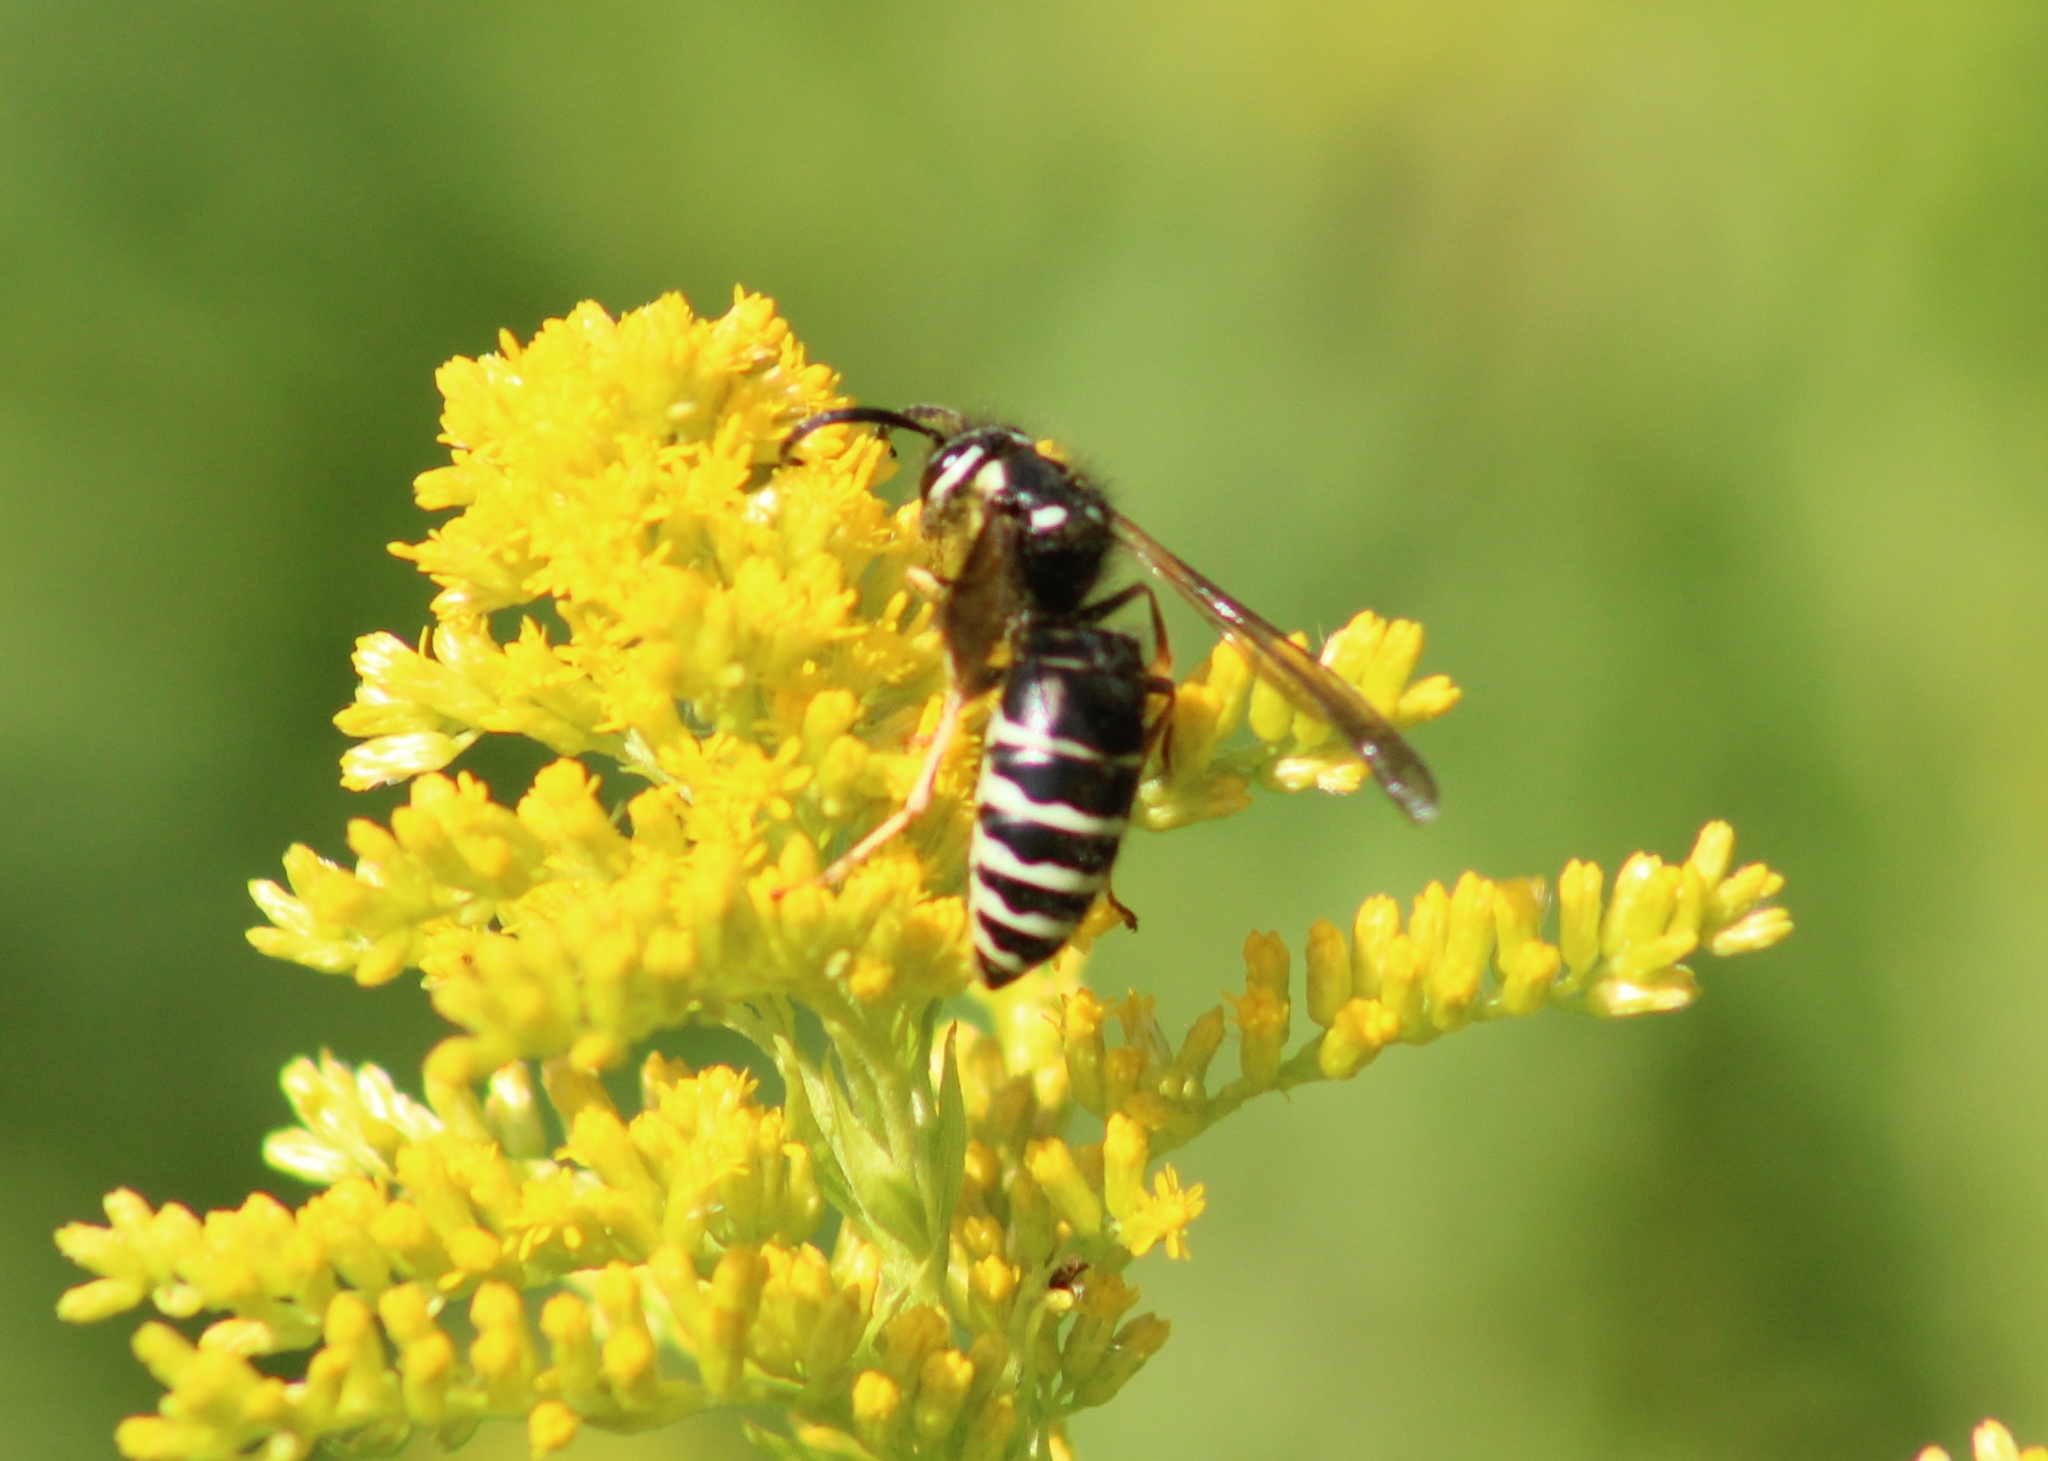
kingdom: Animalia
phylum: Arthropoda
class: Insecta
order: Hymenoptera
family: Vespidae
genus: Vespula
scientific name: Vespula consobrina
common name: Blackjacket
